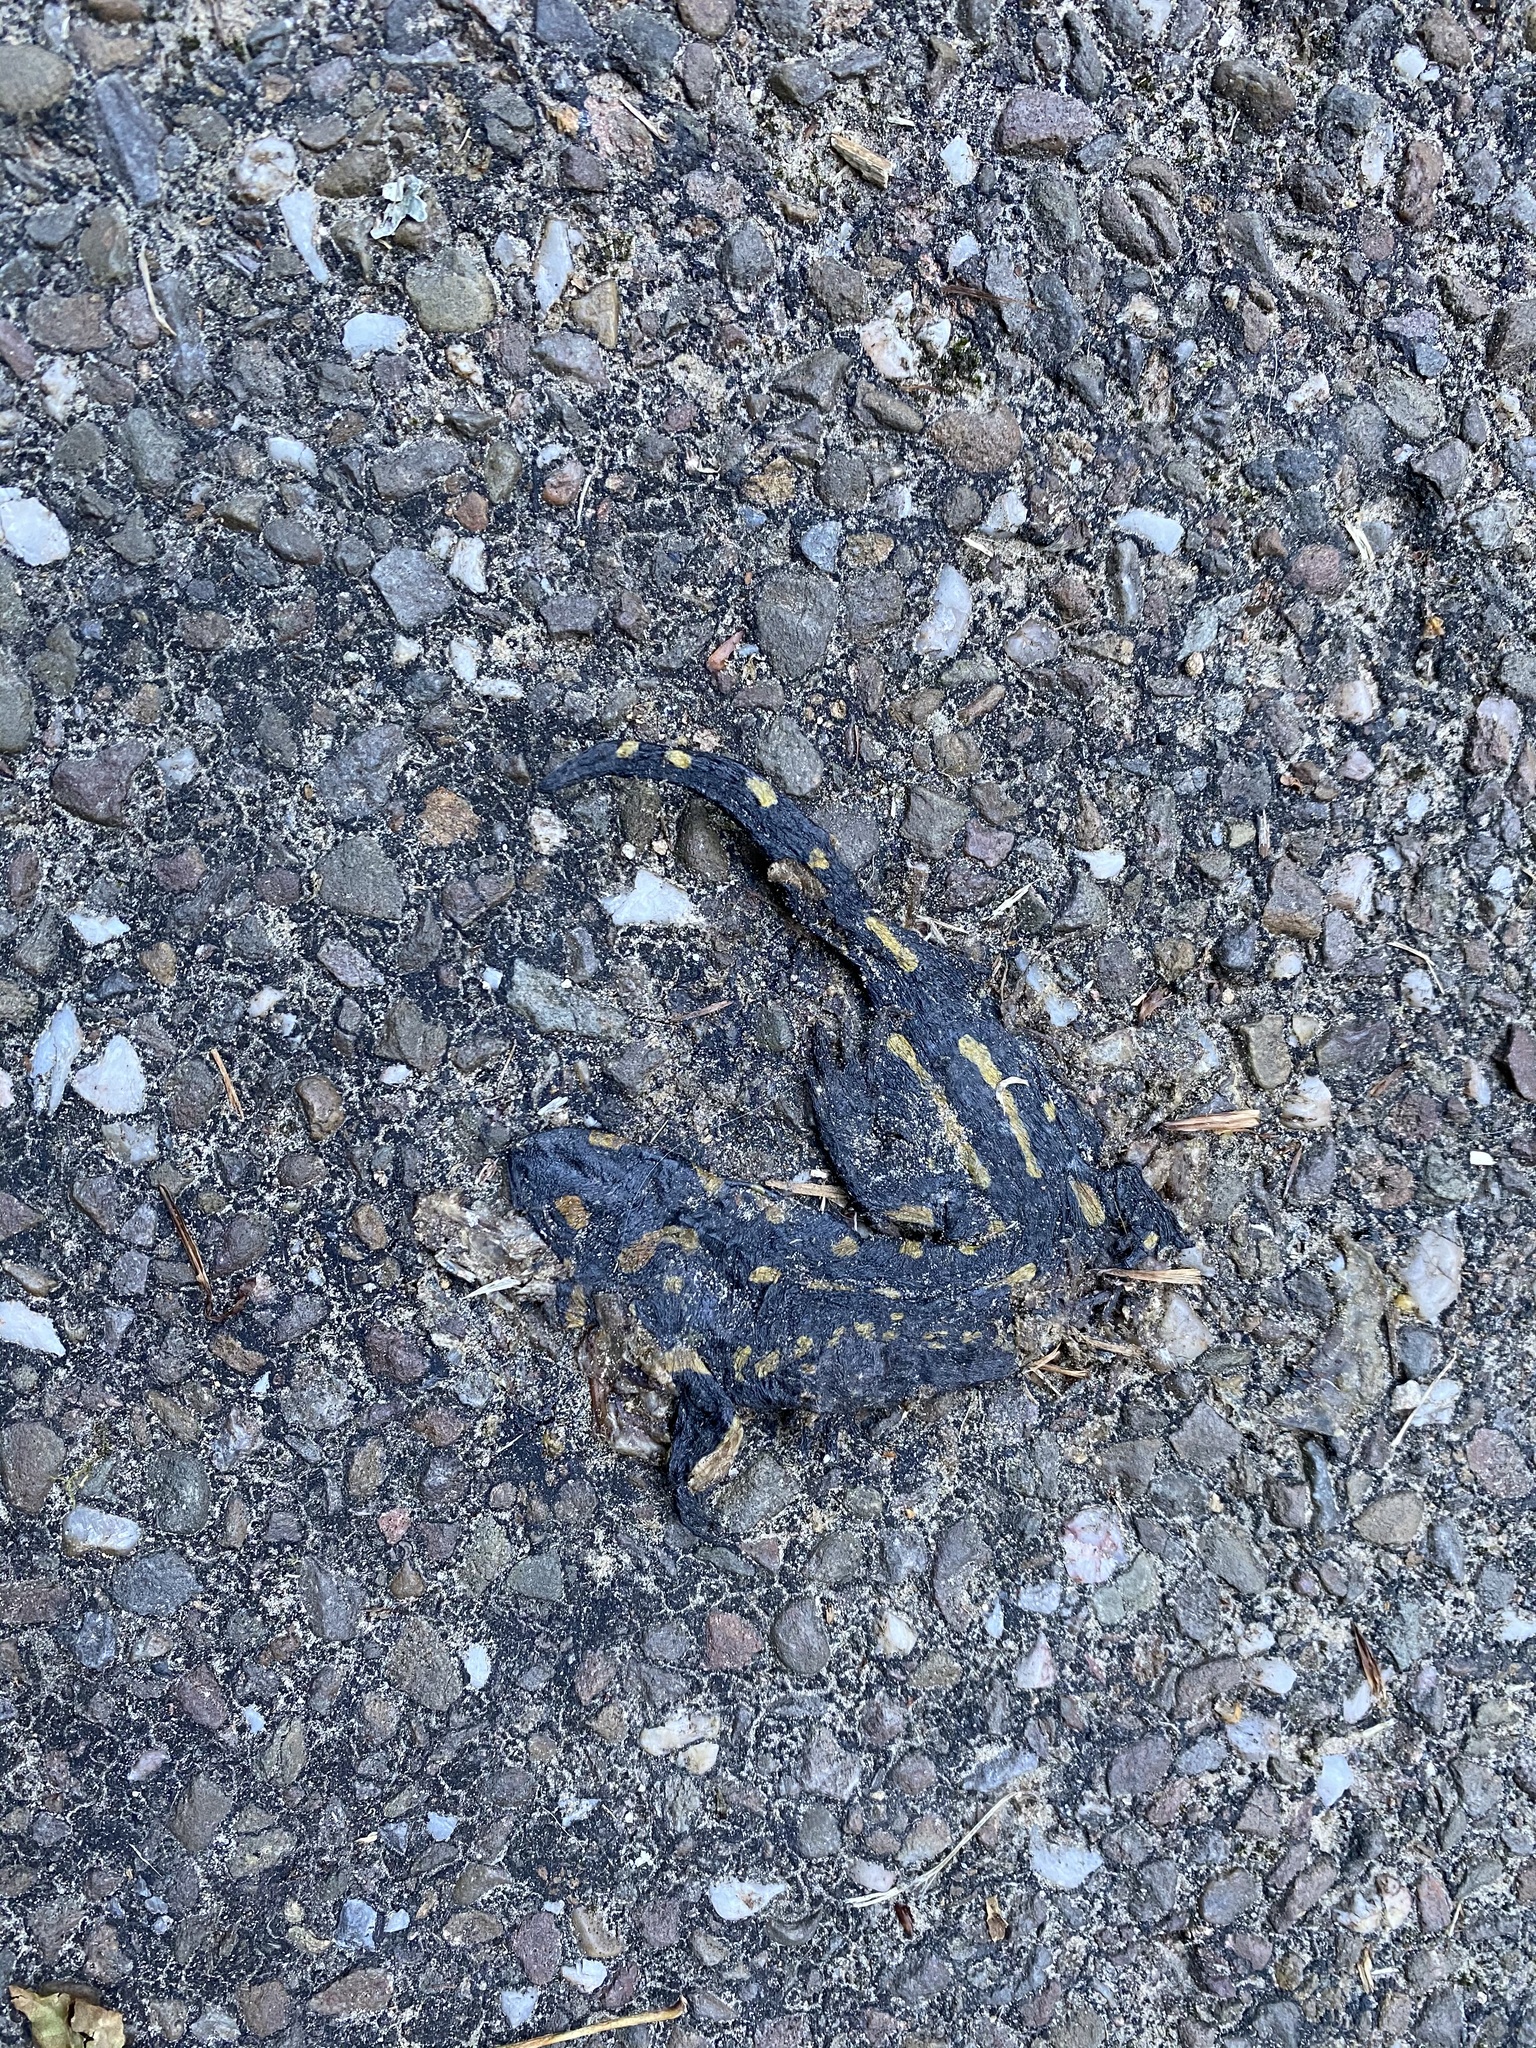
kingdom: Animalia
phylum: Chordata
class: Amphibia
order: Caudata
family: Salamandridae
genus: Salamandra
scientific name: Salamandra salamandra
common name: Fire salamander
